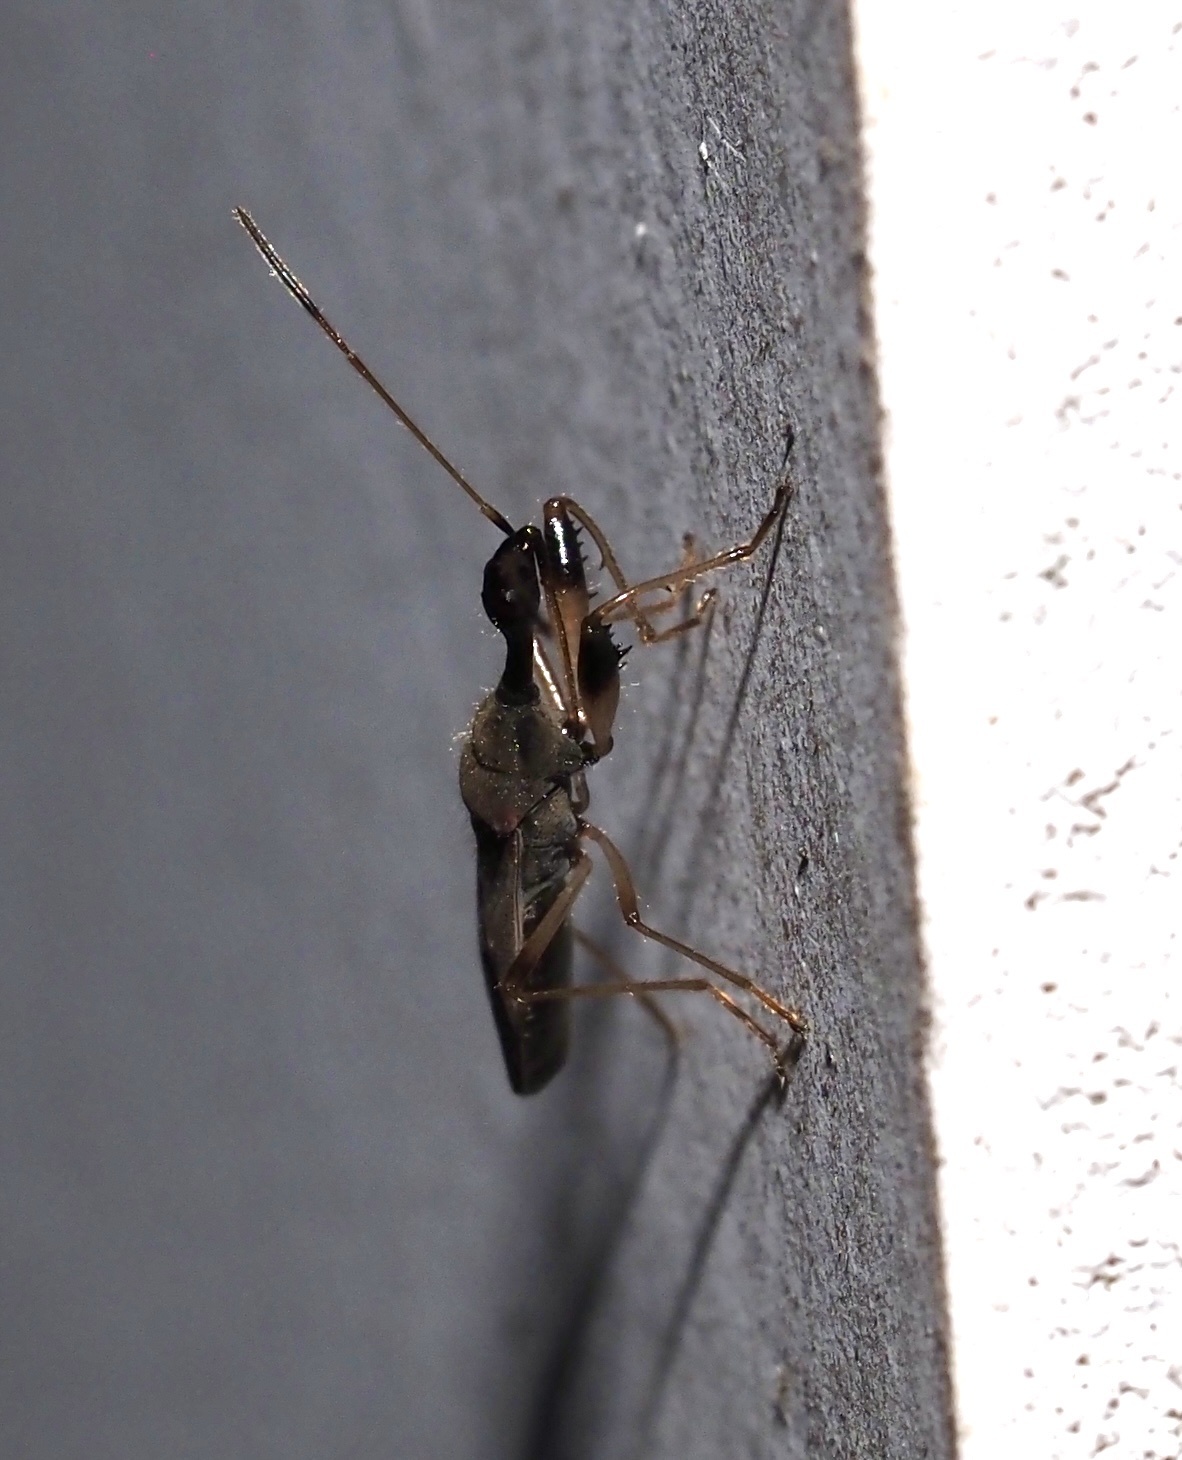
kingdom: Animalia
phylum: Arthropoda
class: Insecta
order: Hemiptera
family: Rhyparochromidae
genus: Myodocha
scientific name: Myodocha serripes
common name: Long-necked seed bug
